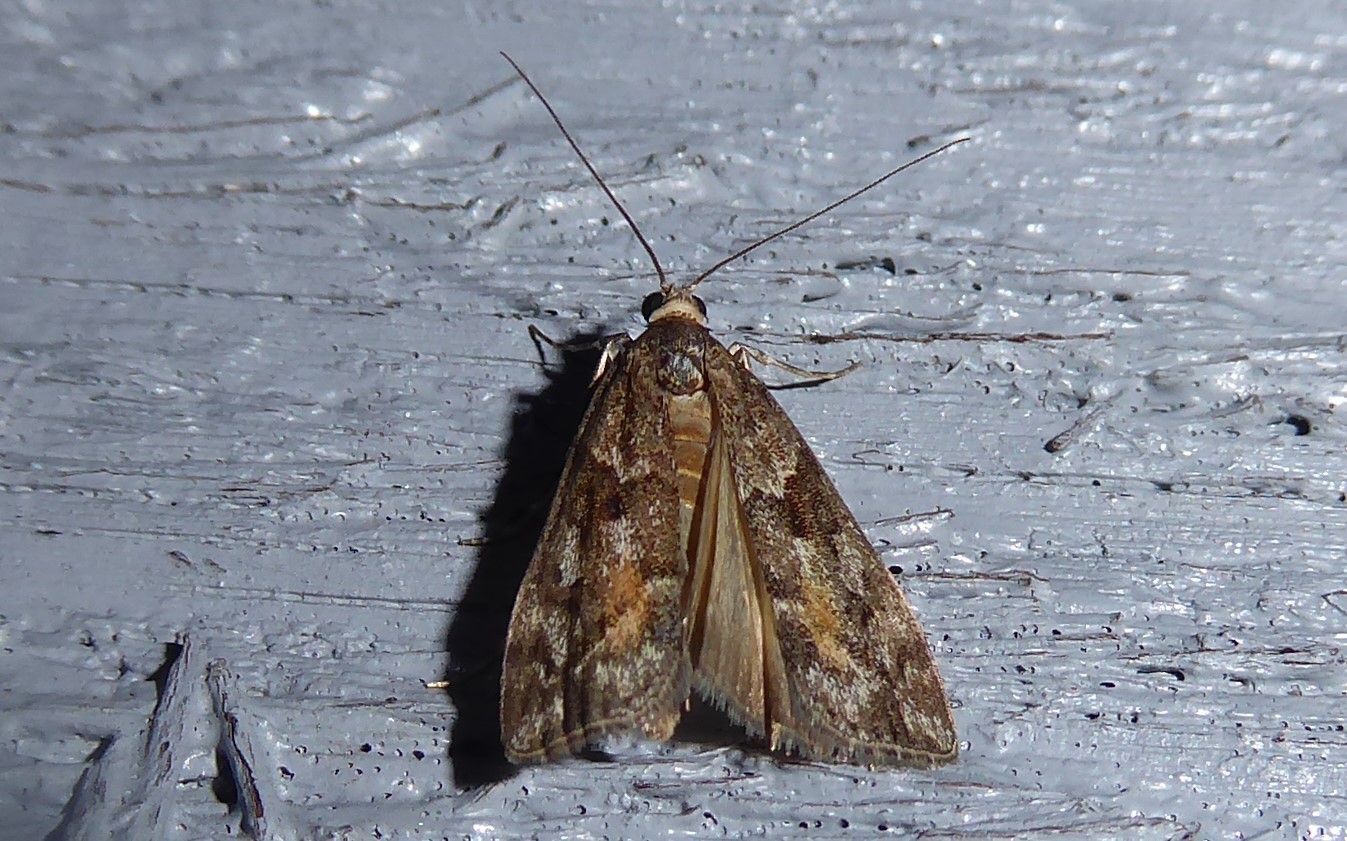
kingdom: Animalia
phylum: Arthropoda
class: Insecta
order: Lepidoptera
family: Crambidae
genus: Eudonia
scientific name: Eudonia submarginalis
